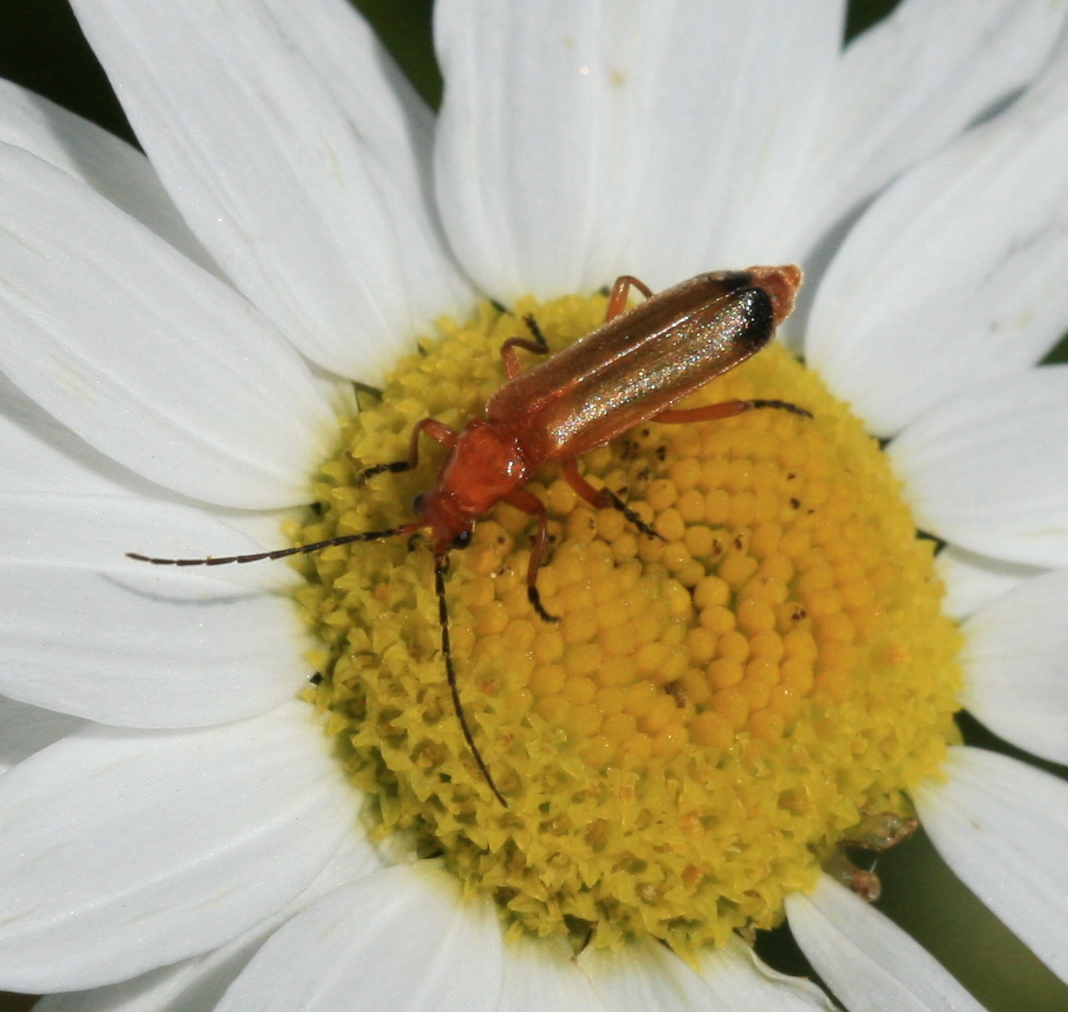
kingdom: Animalia
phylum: Arthropoda
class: Insecta
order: Coleoptera
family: Cantharidae
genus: Rhagonycha
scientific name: Rhagonycha fulva
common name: Common red soldier beetle
